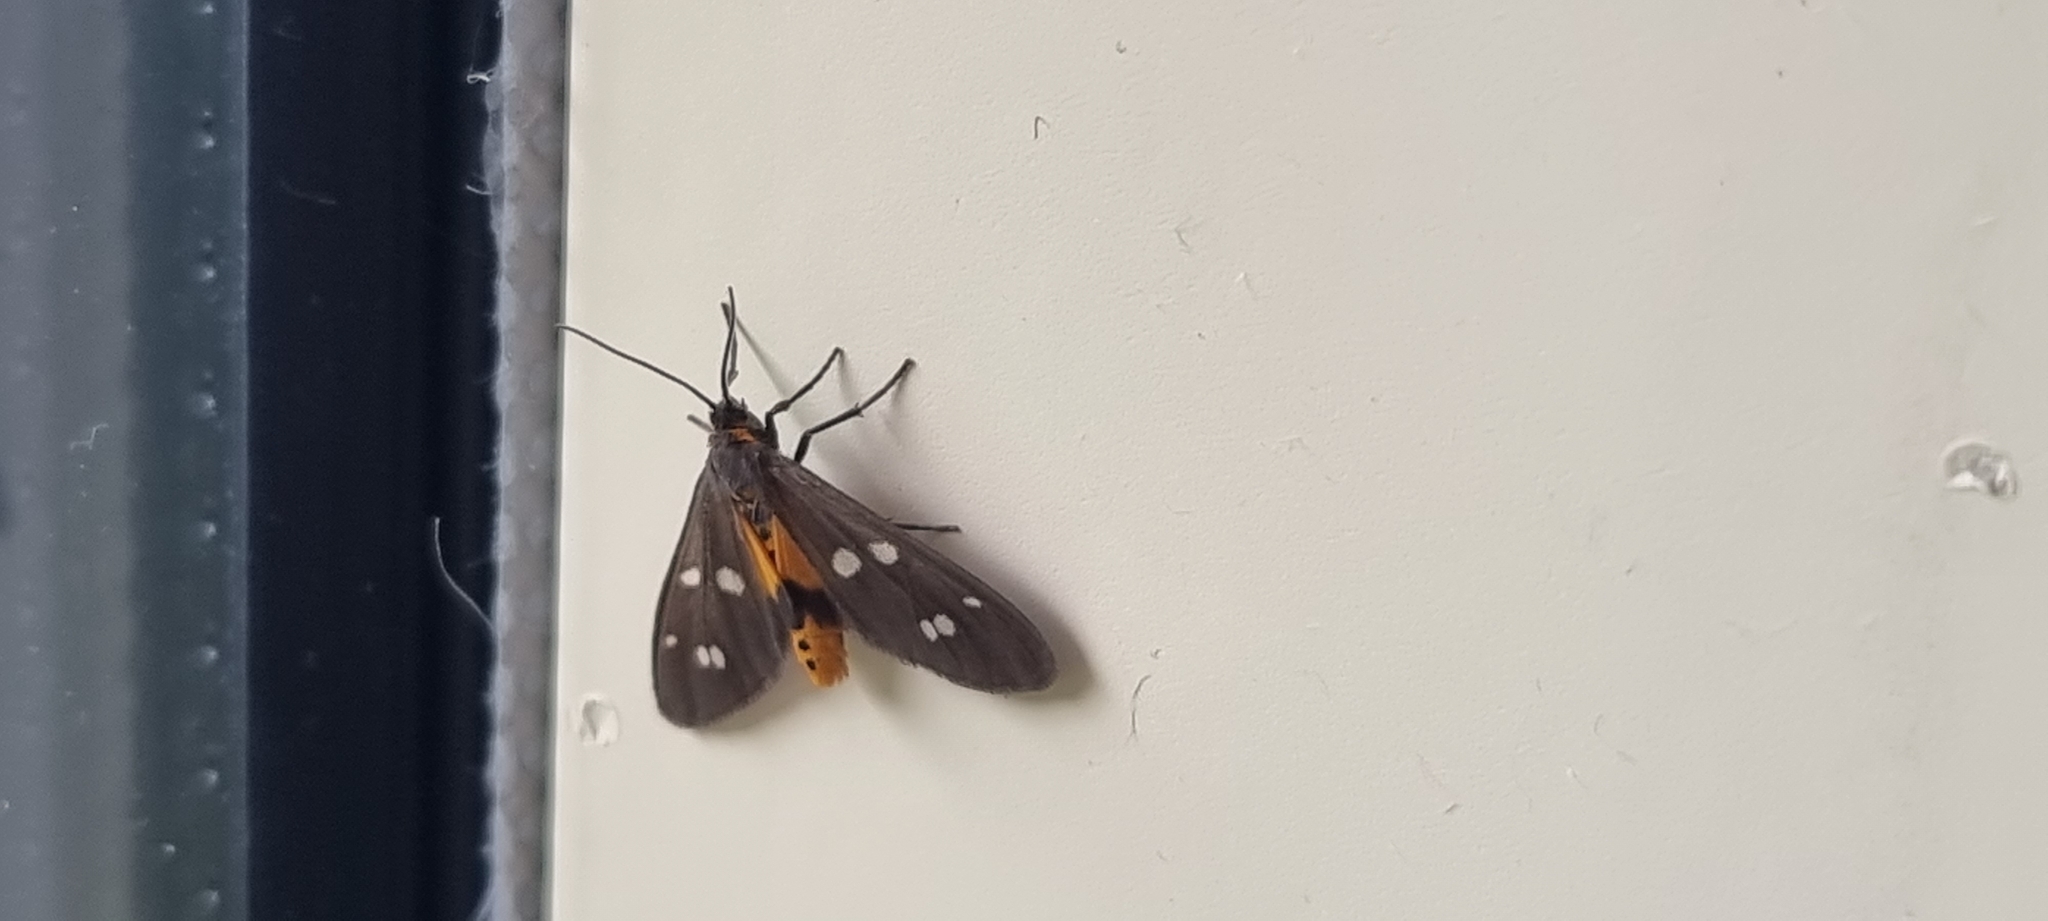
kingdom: Animalia
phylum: Arthropoda
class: Insecta
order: Lepidoptera
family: Erebidae
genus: Dysauxes
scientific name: Dysauxes punctata
